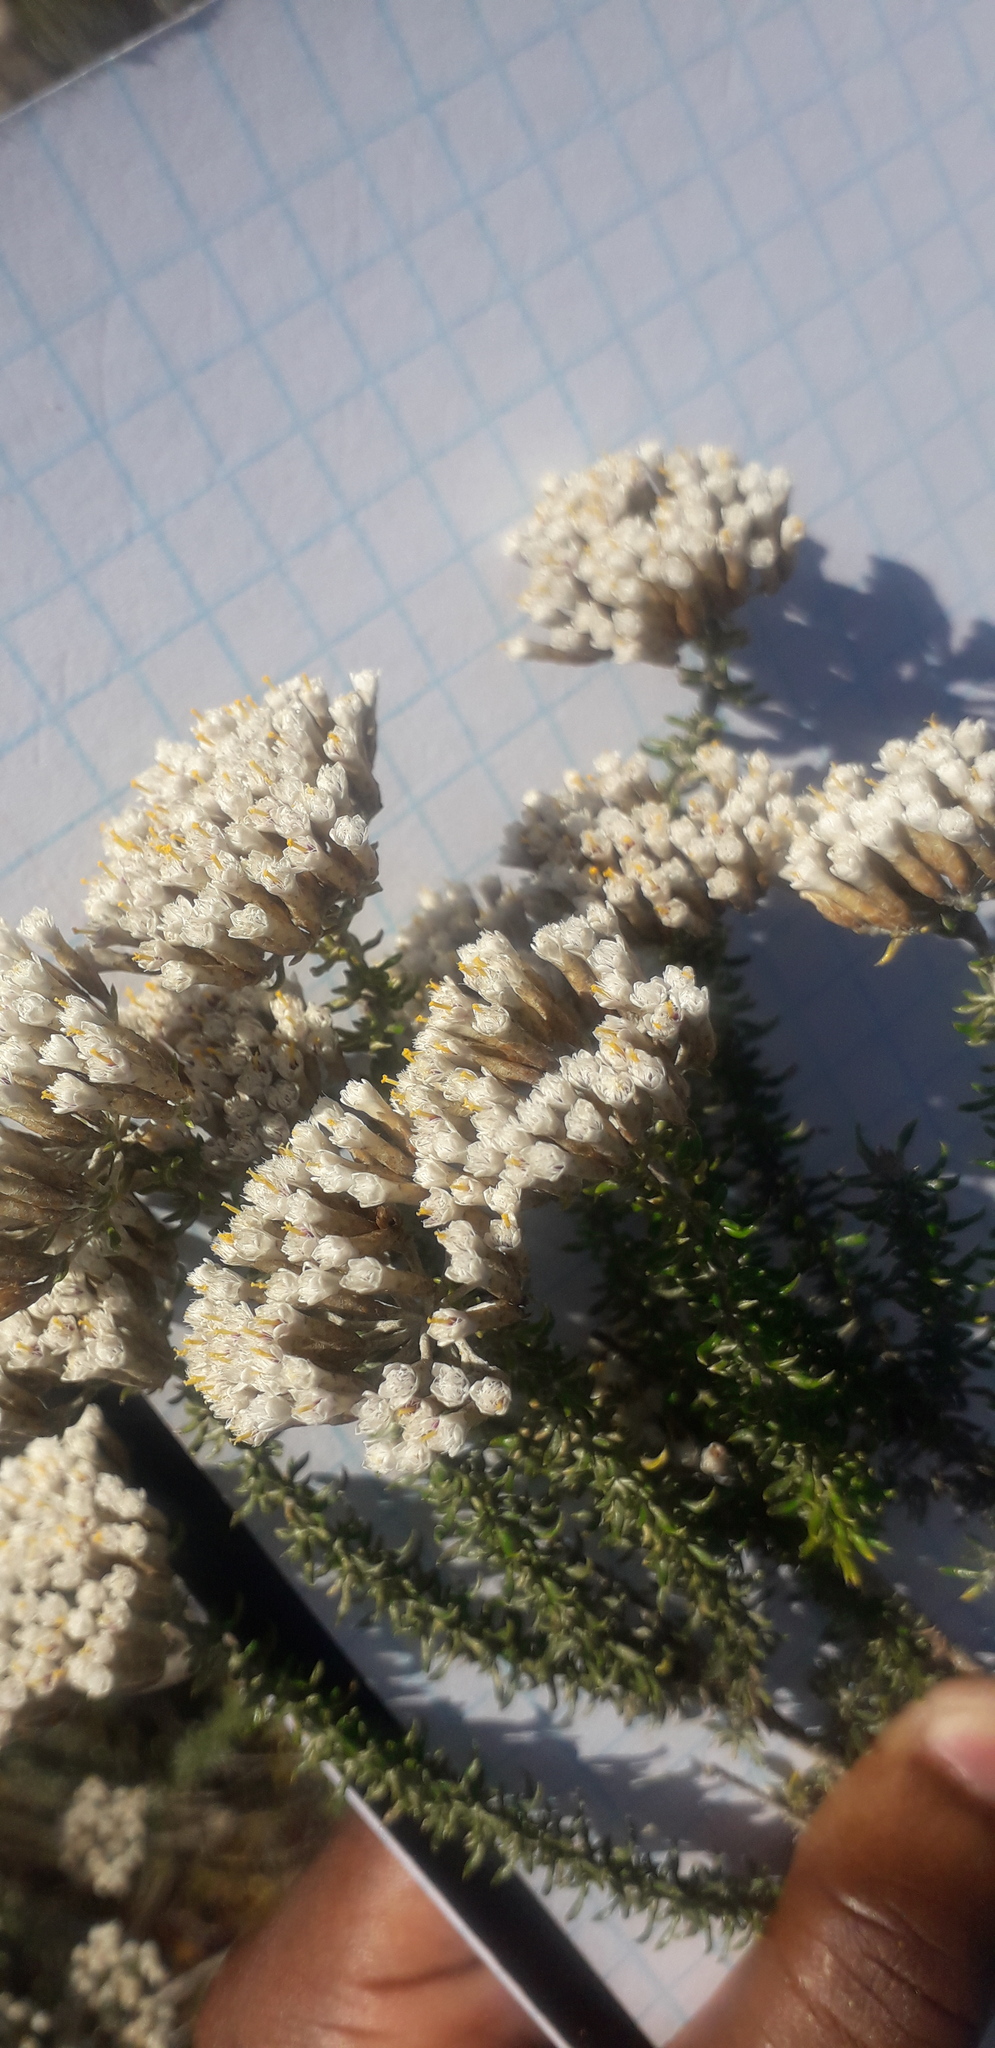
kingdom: Plantae
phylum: Tracheophyta
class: Magnoliopsida
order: Asterales
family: Asteraceae
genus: Metalasia
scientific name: Metalasia muricata
